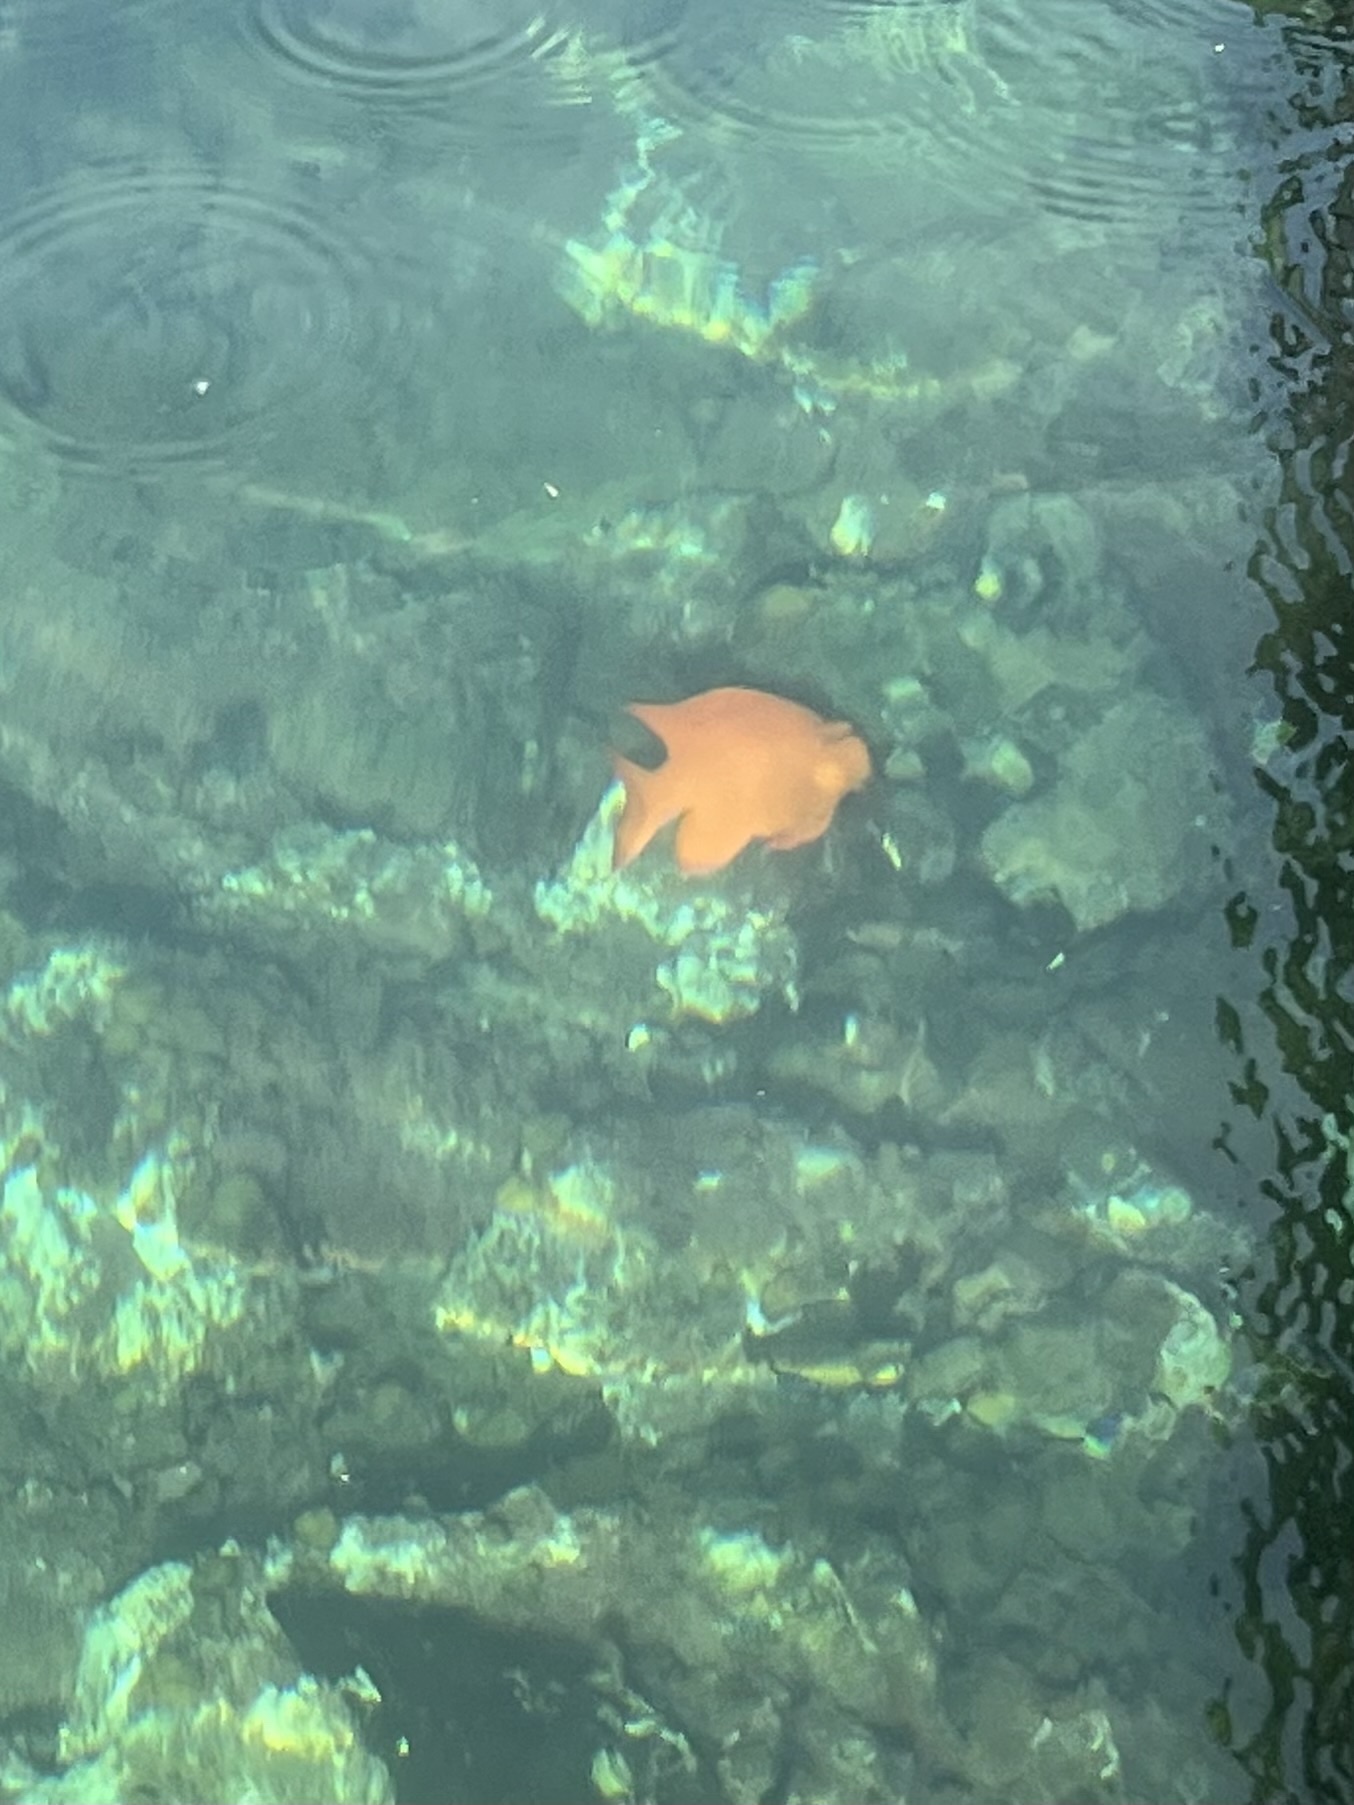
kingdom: Animalia
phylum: Chordata
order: Perciformes
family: Pomacentridae
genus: Hypsypops
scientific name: Hypsypops rubicundus
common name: Garibaldi
